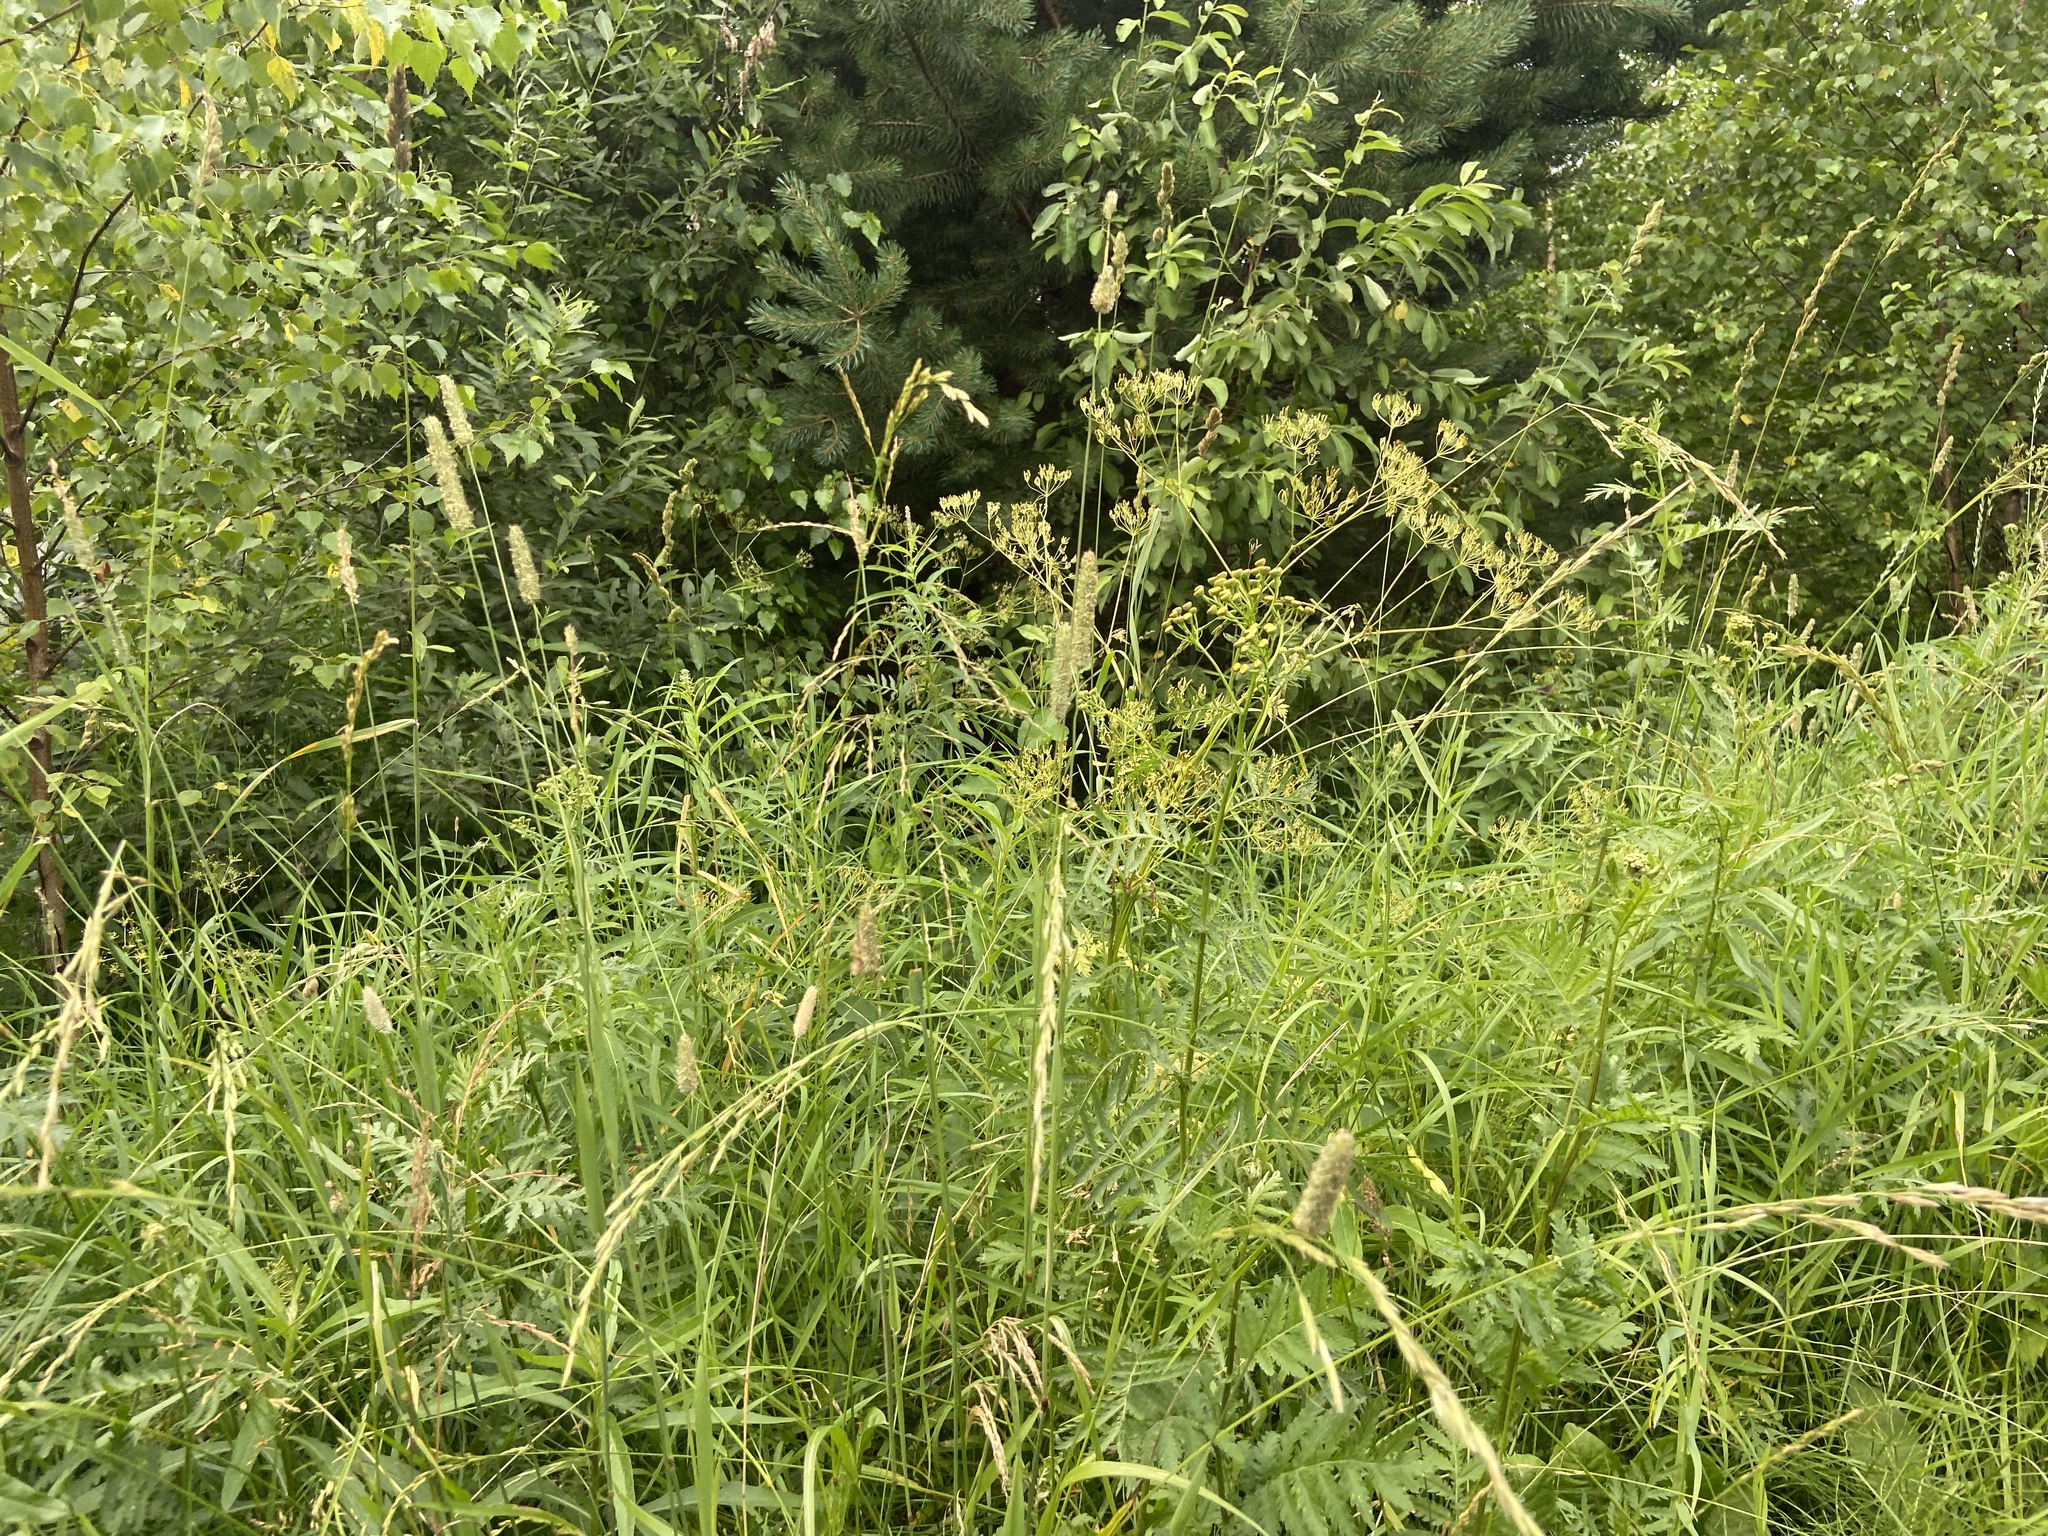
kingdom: Plantae
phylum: Tracheophyta
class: Liliopsida
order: Poales
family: Poaceae
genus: Phleum
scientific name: Phleum pratense
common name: Timothy grass
